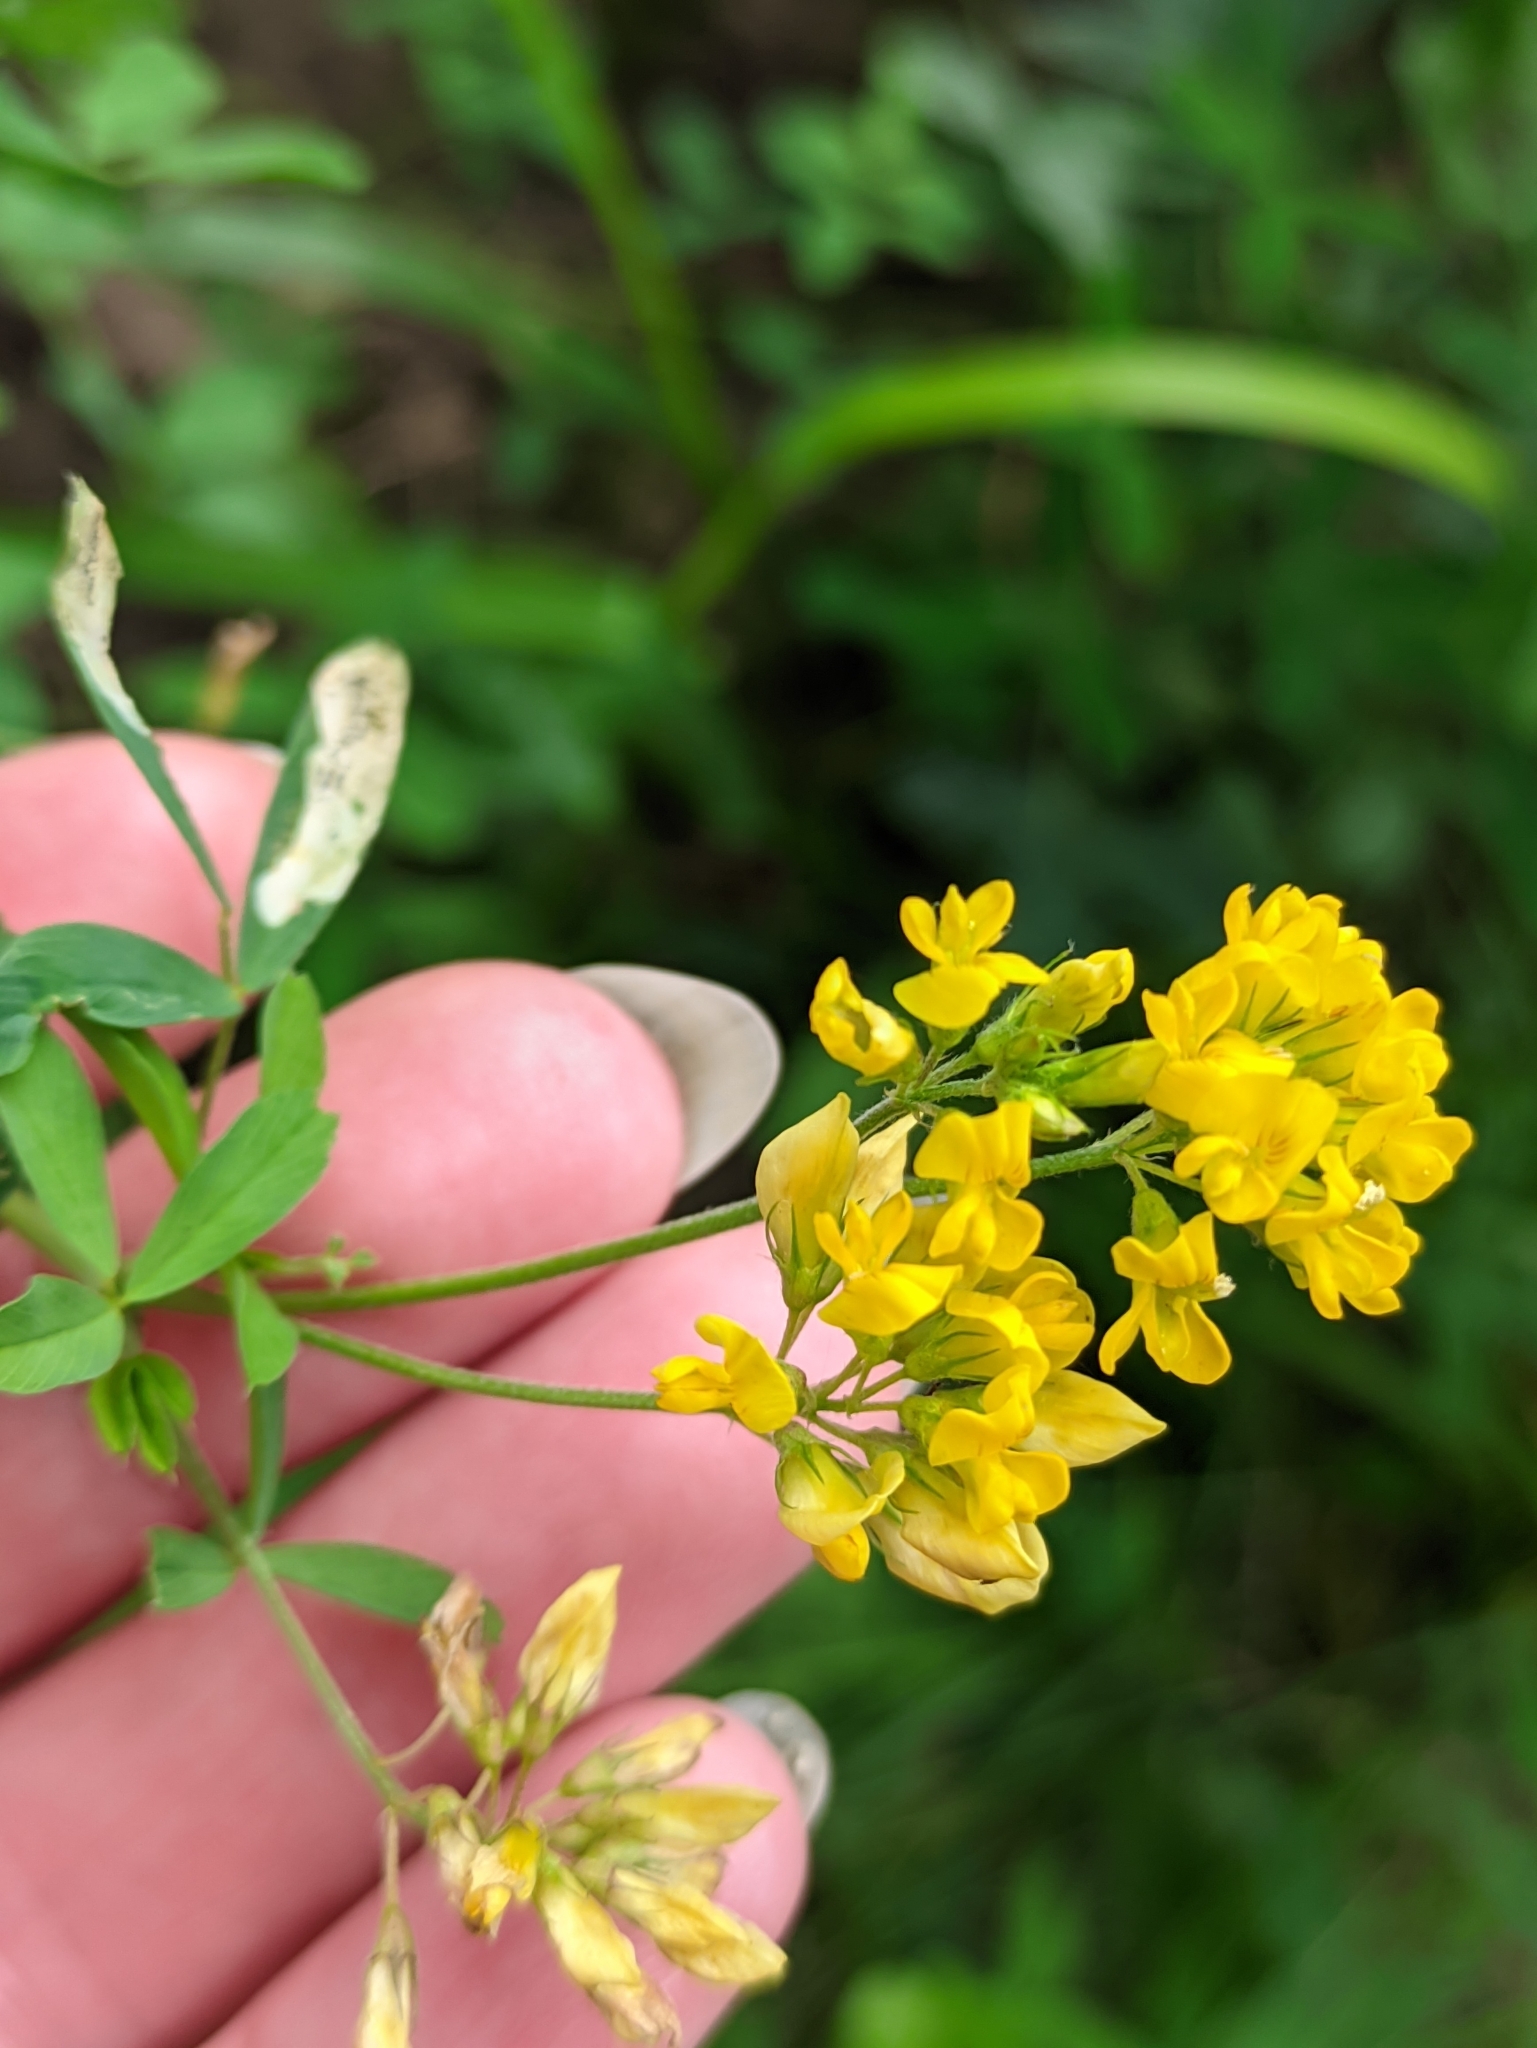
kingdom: Plantae
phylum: Tracheophyta
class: Magnoliopsida
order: Fabales
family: Fabaceae
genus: Medicago
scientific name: Medicago falcata
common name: Sickle medick
